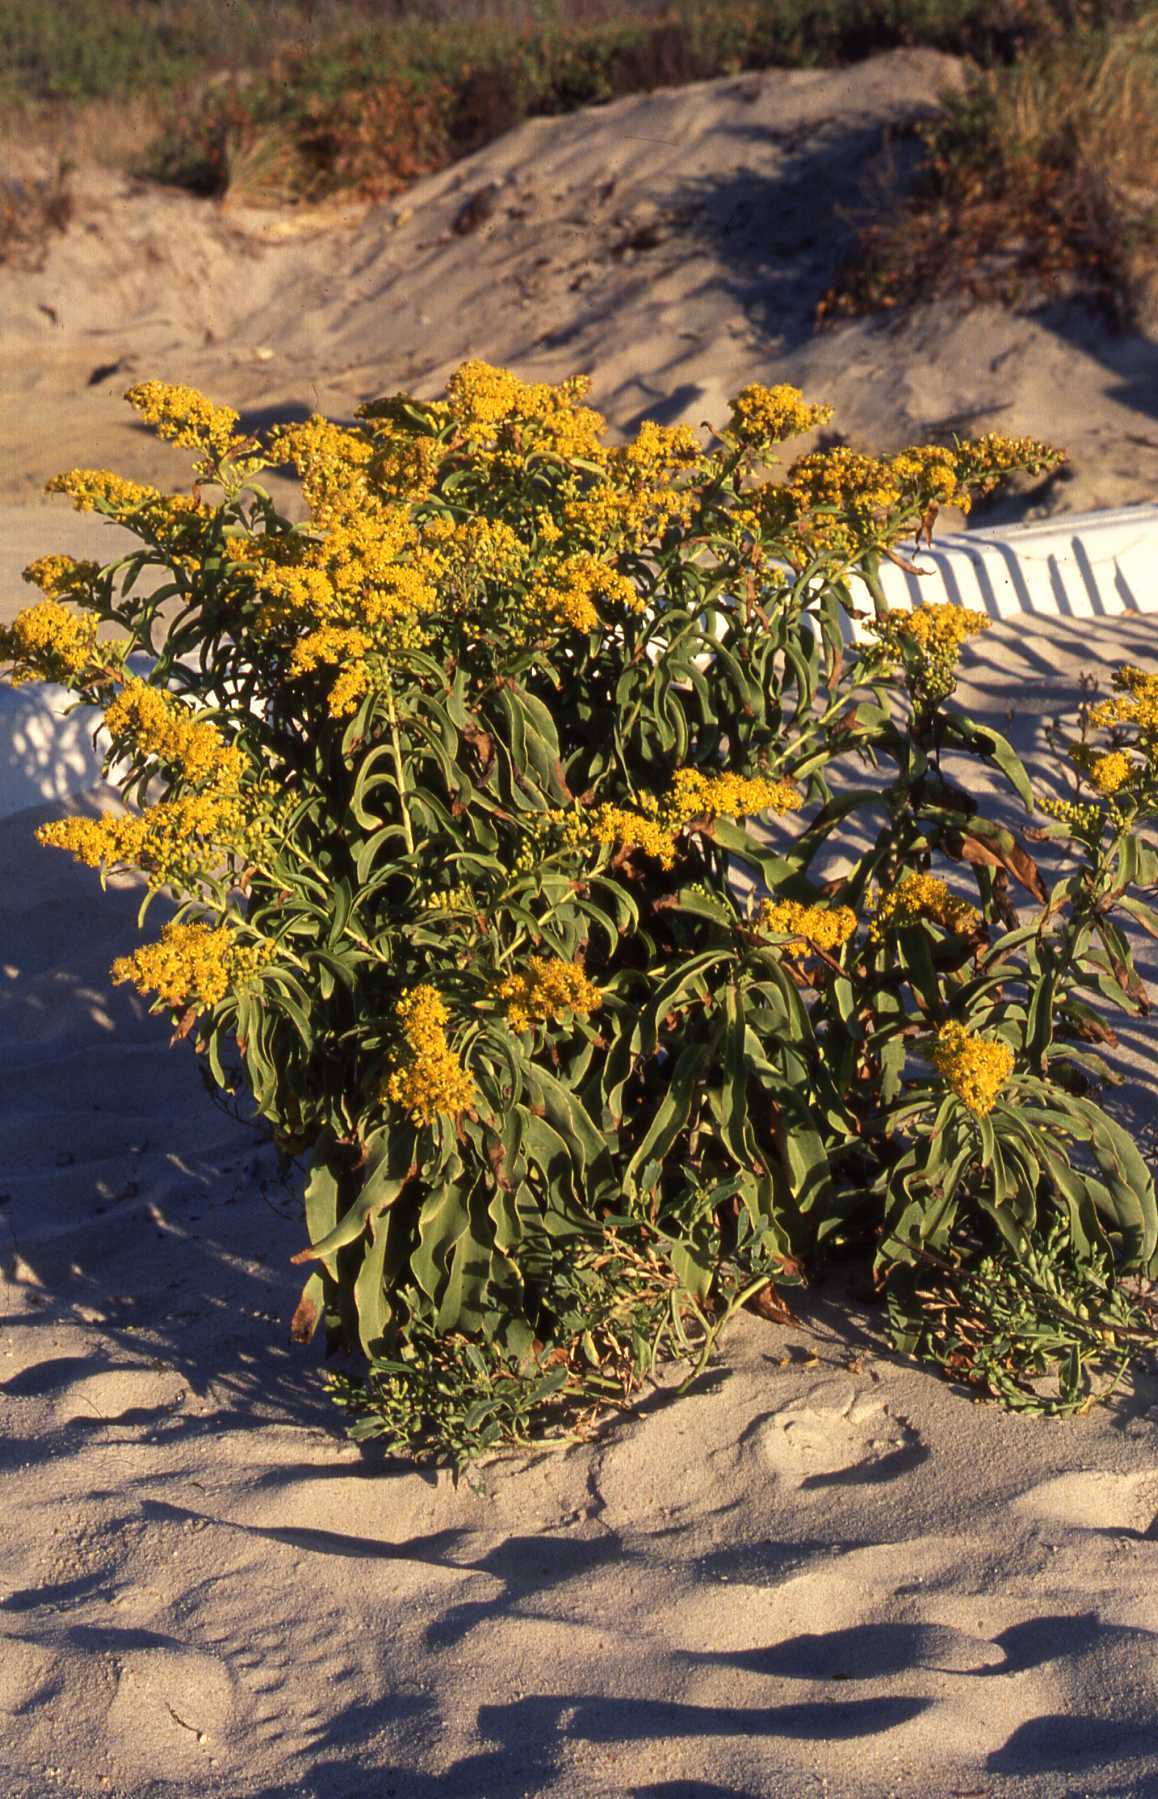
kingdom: Plantae
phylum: Tracheophyta
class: Magnoliopsida
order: Asterales
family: Asteraceae
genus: Solidago
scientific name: Solidago sempervirens
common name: Salt-marsh goldenrod
